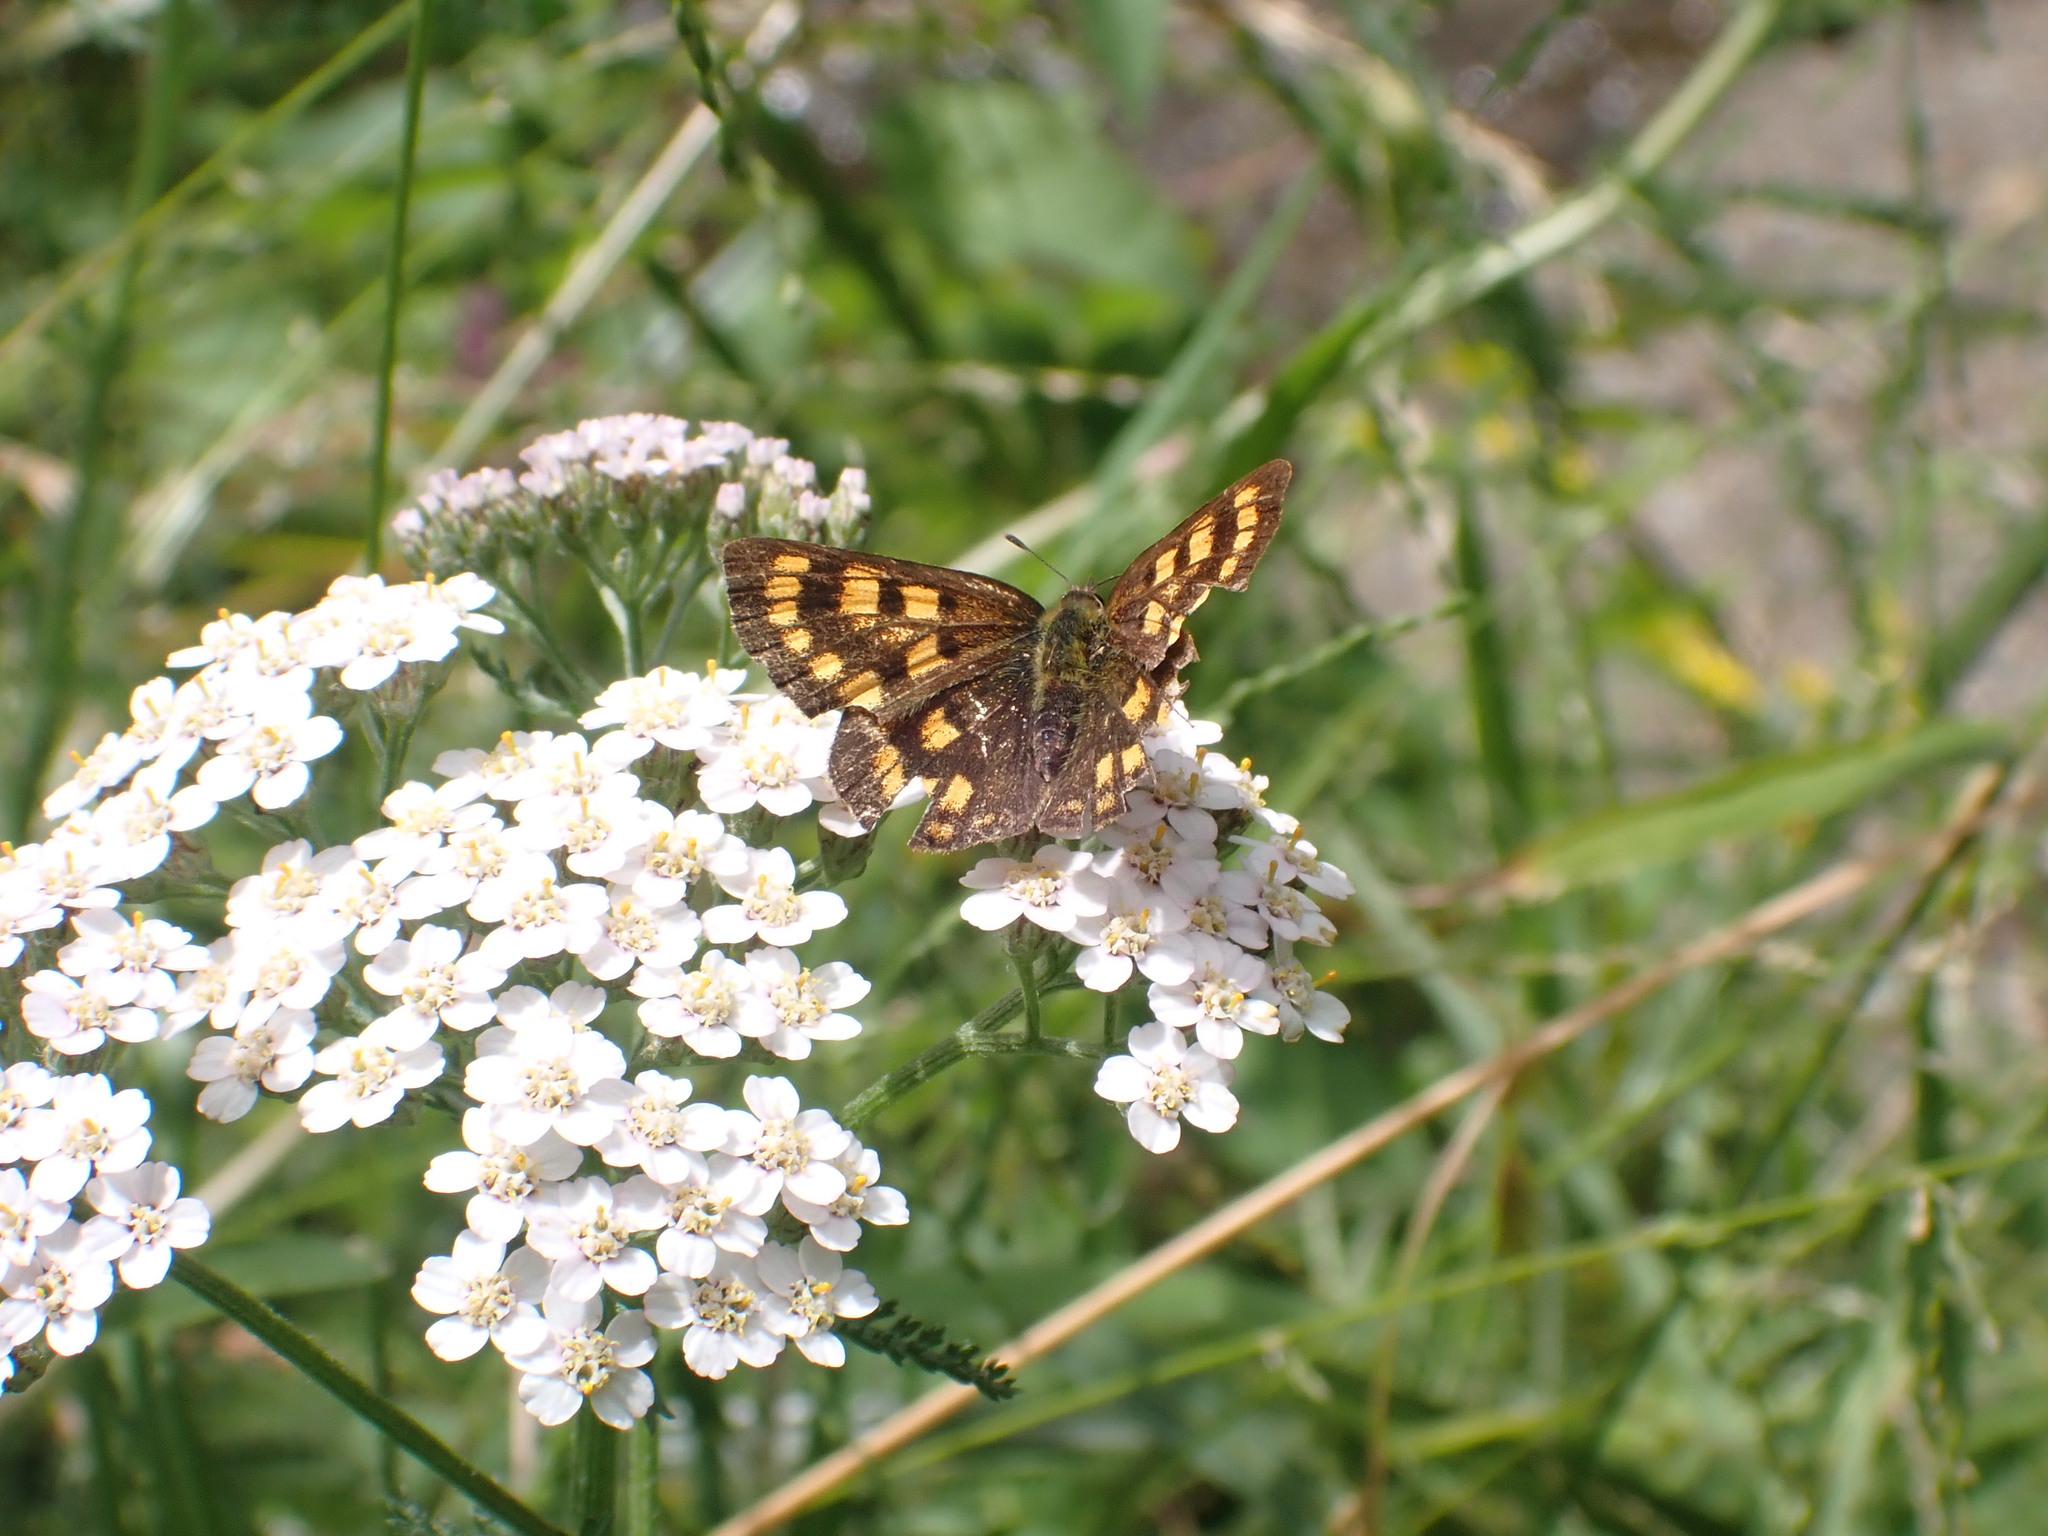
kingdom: Animalia
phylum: Arthropoda
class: Insecta
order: Lepidoptera
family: Lycaenidae
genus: Lycaena
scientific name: Lycaena
